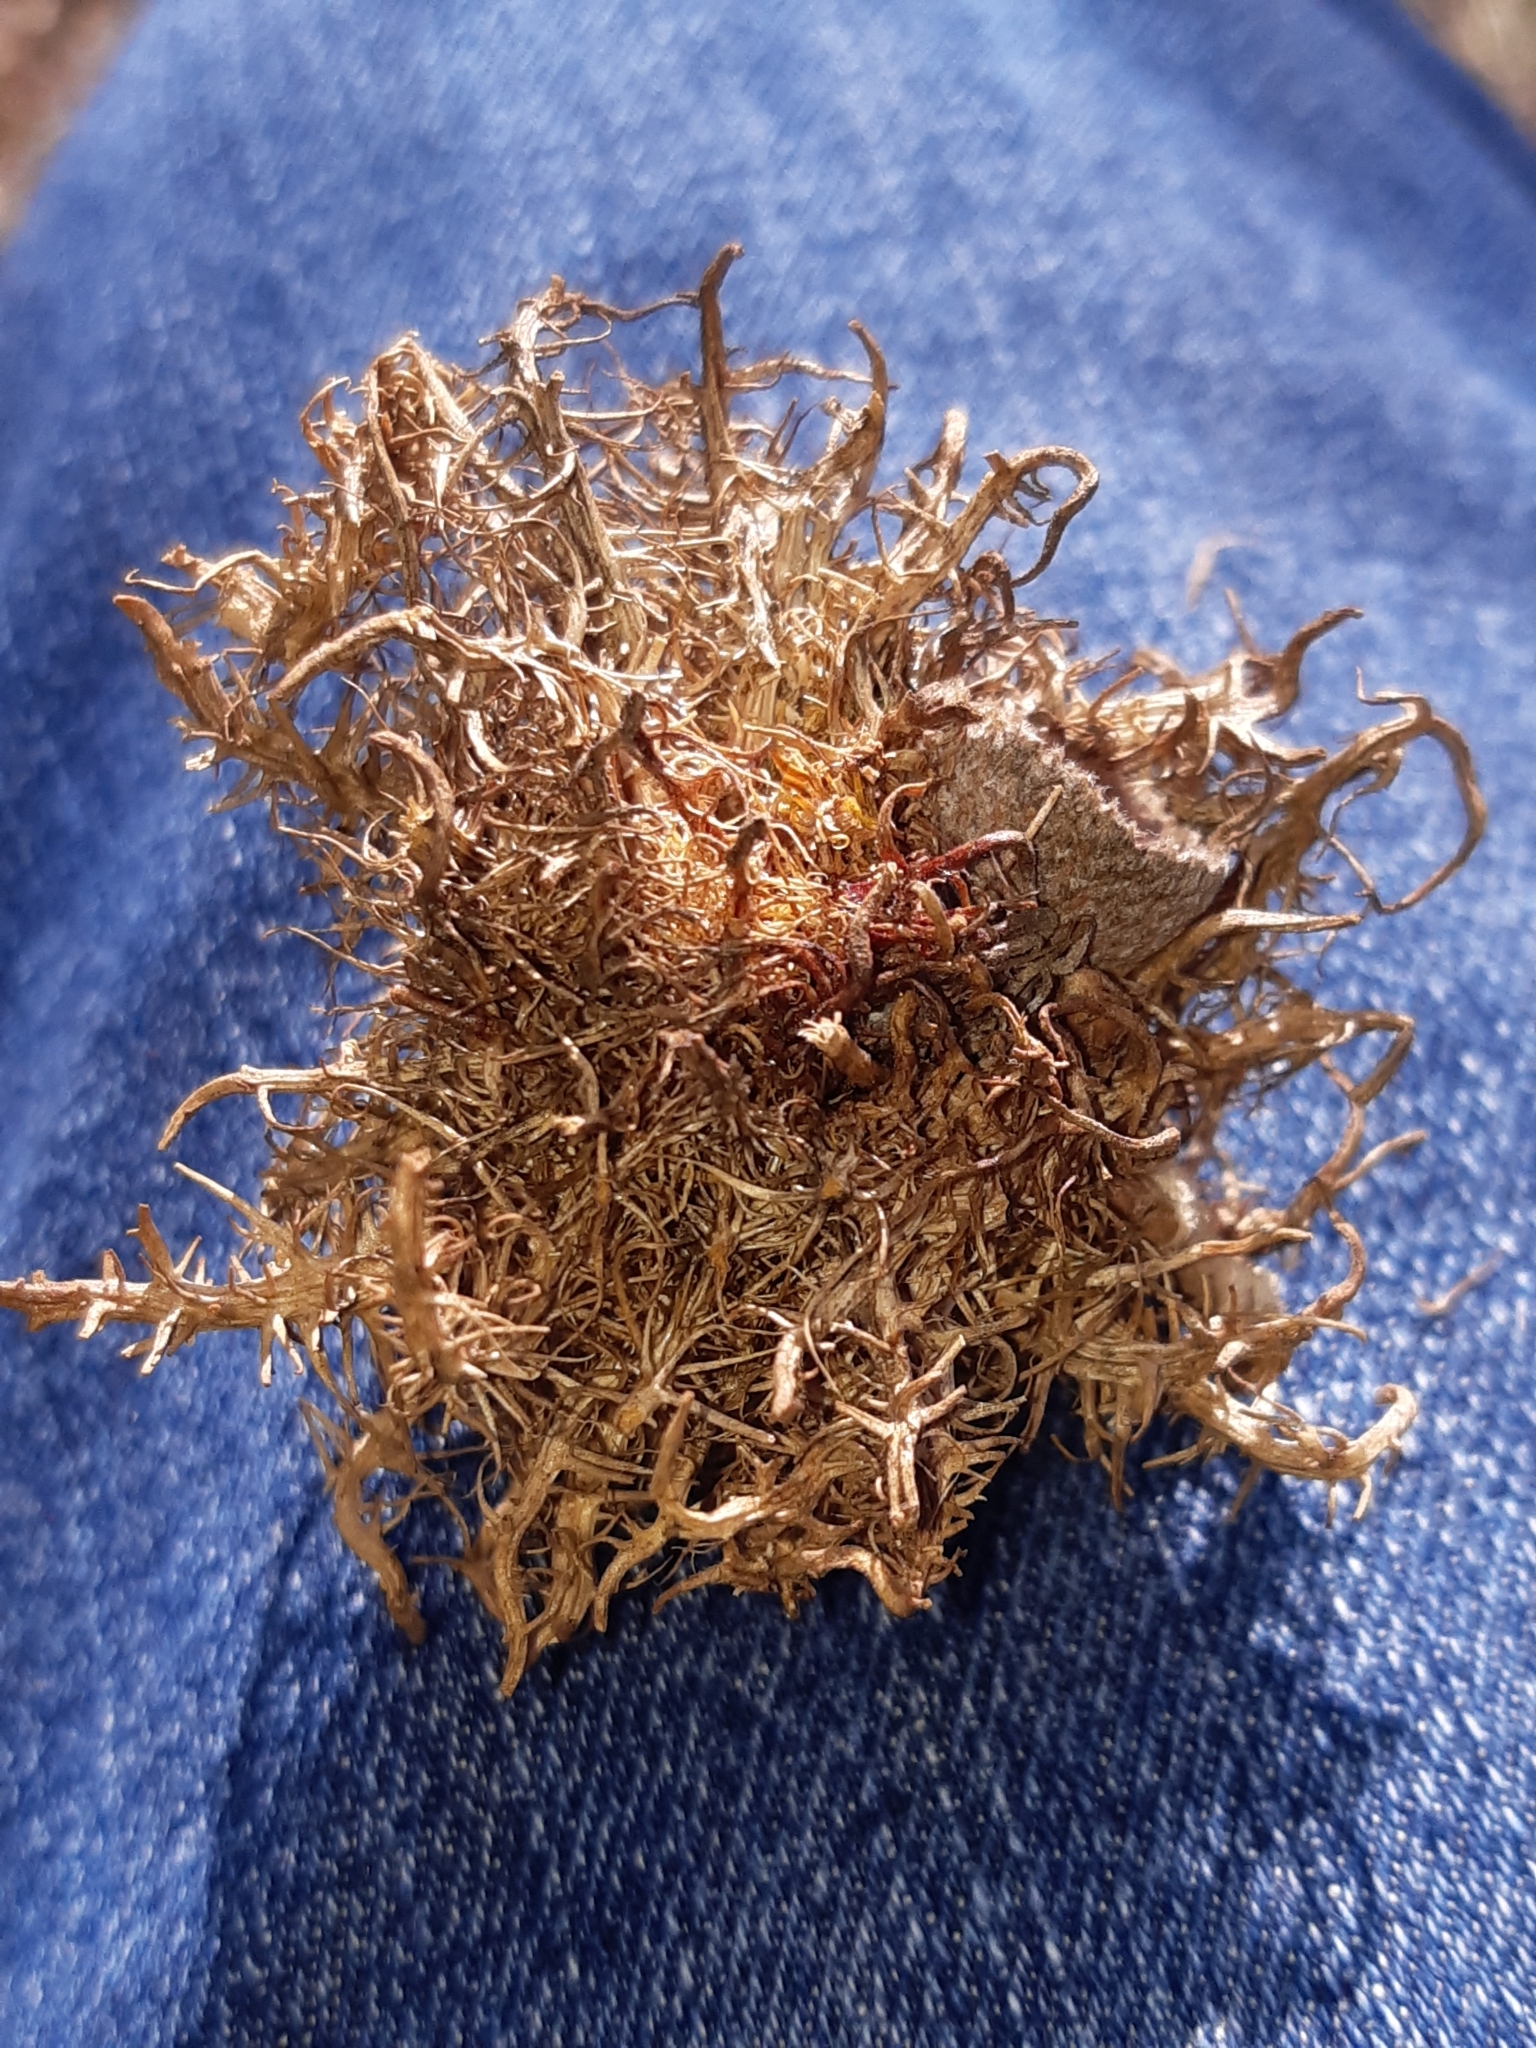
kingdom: Animalia
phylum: Arthropoda
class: Insecta
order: Hymenoptera
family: Cynipidae
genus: Andricus
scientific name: Andricus caputmedusae
